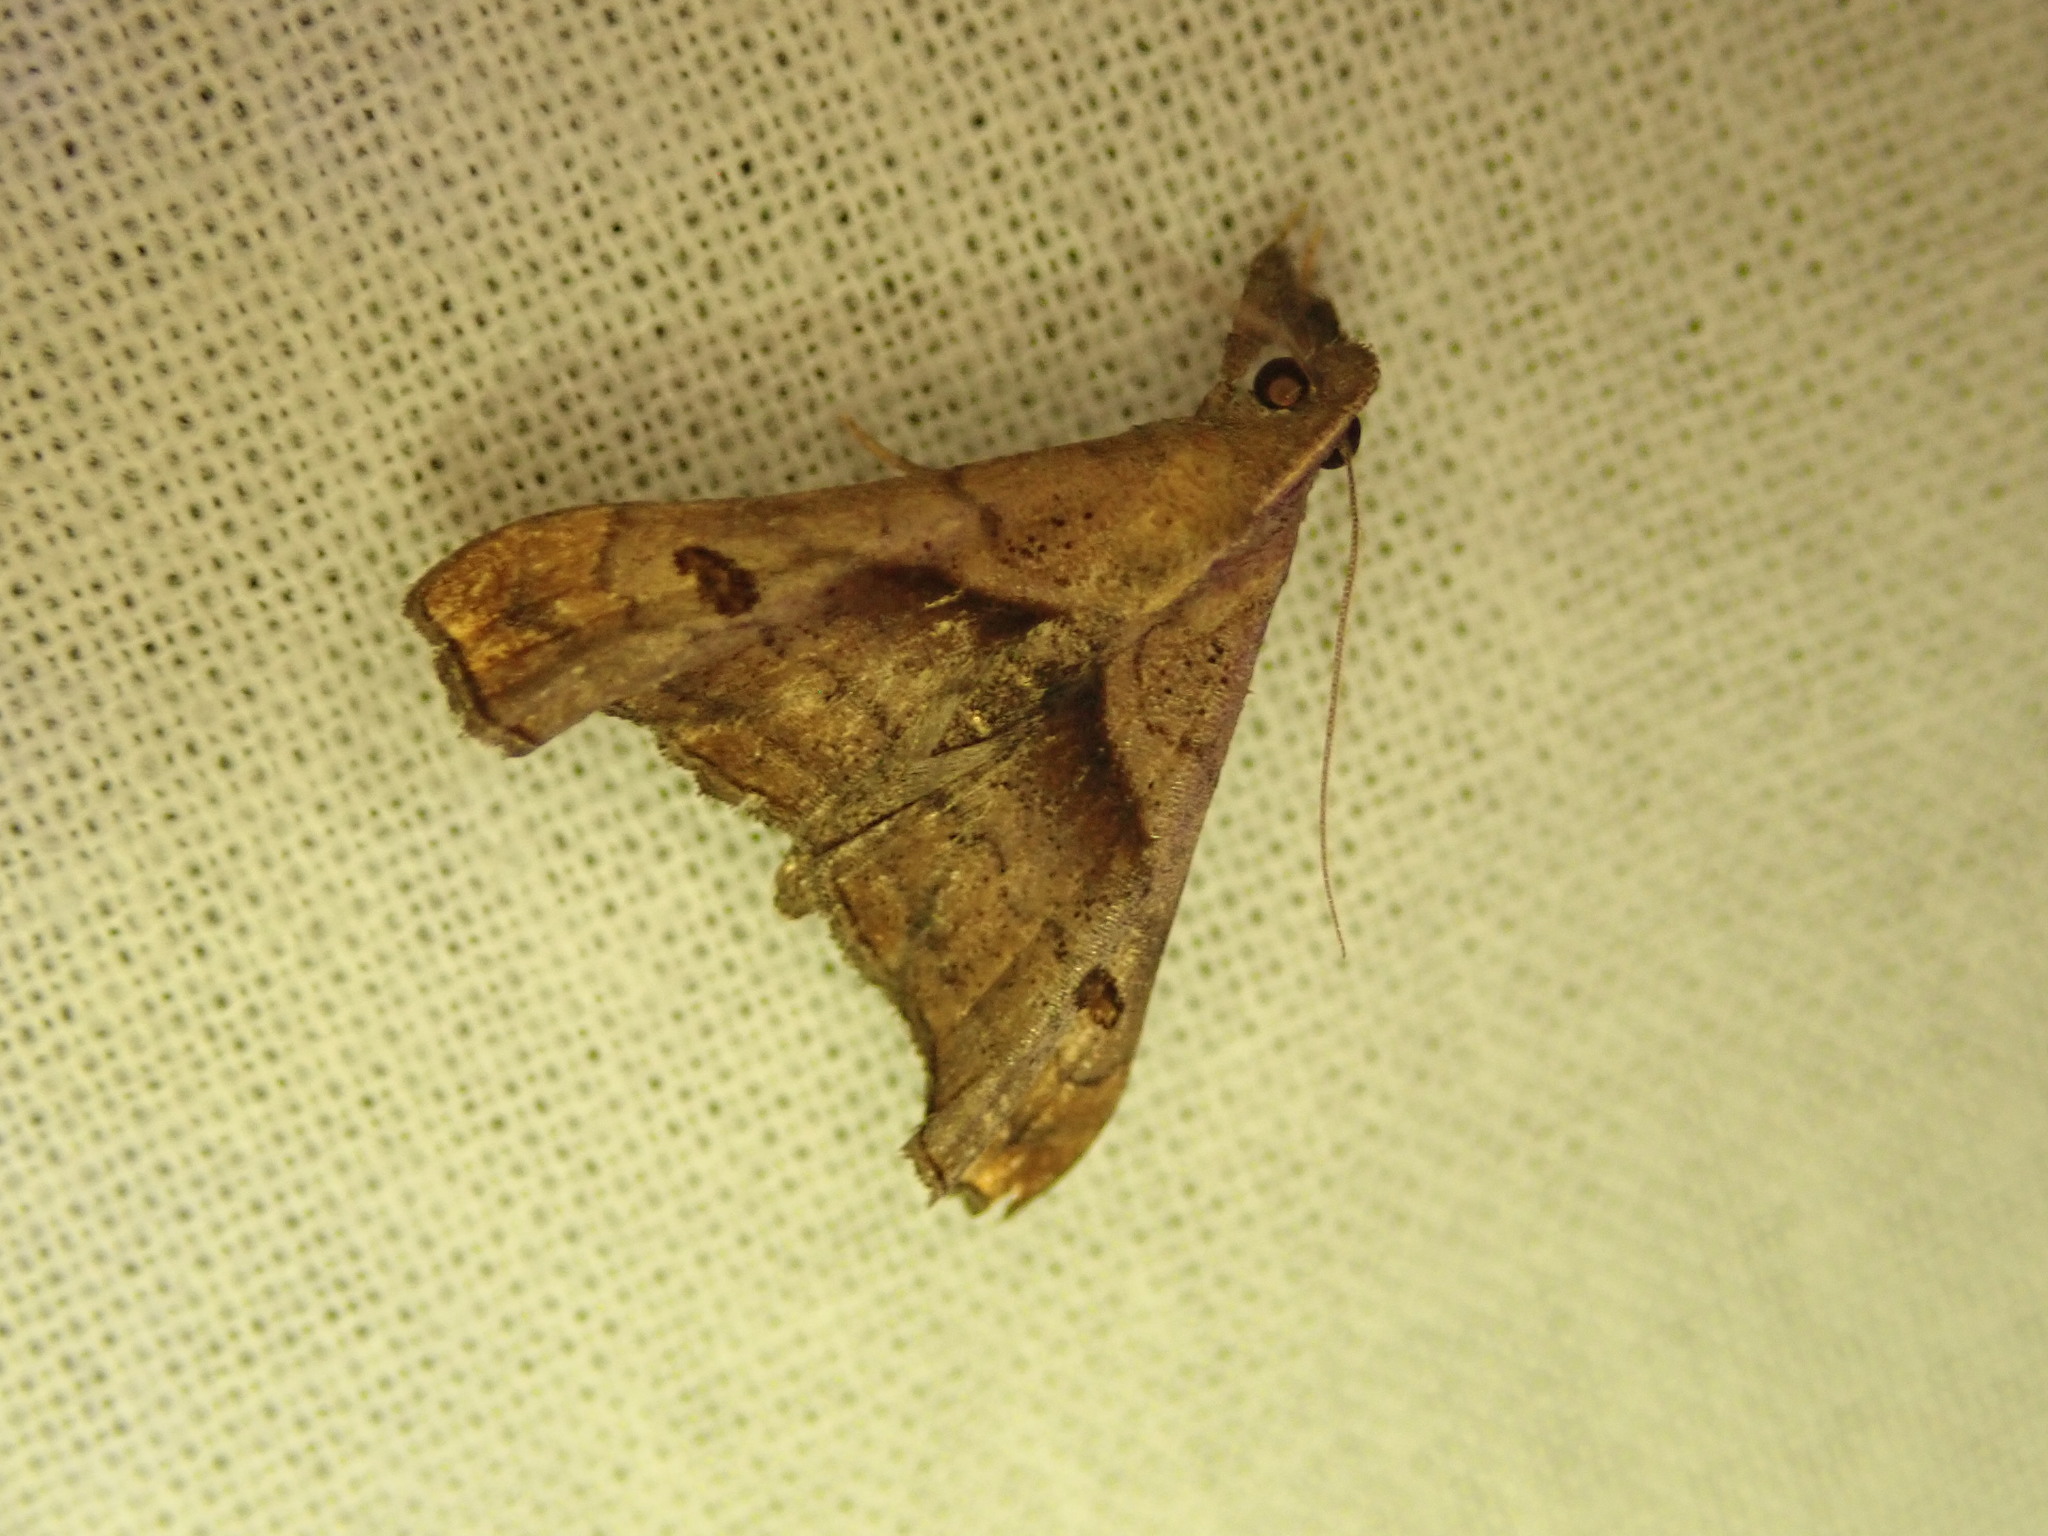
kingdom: Animalia
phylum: Arthropoda
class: Insecta
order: Lepidoptera
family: Erebidae
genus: Palthis
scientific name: Palthis angulalis
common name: Dark-spotted palthis moth
